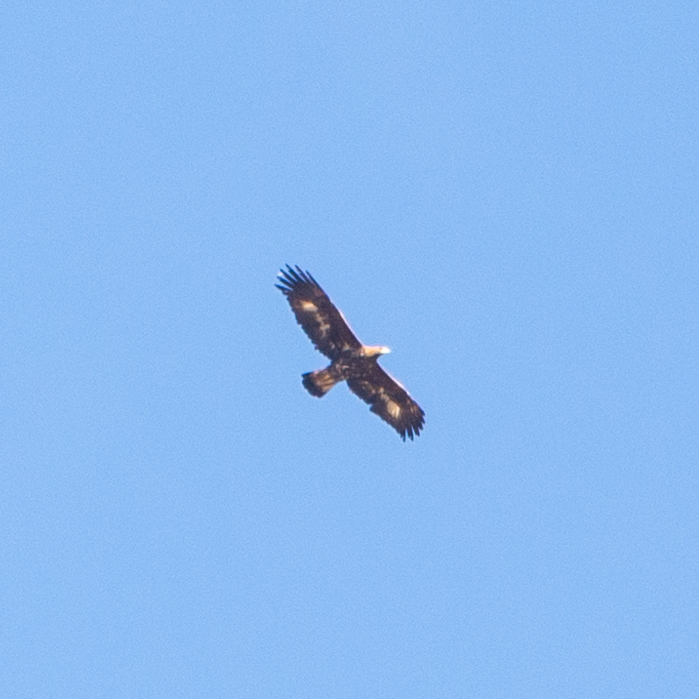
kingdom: Animalia
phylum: Chordata
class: Aves
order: Accipitriformes
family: Accipitridae
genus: Aquila
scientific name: Aquila chrysaetos
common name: Golden eagle
